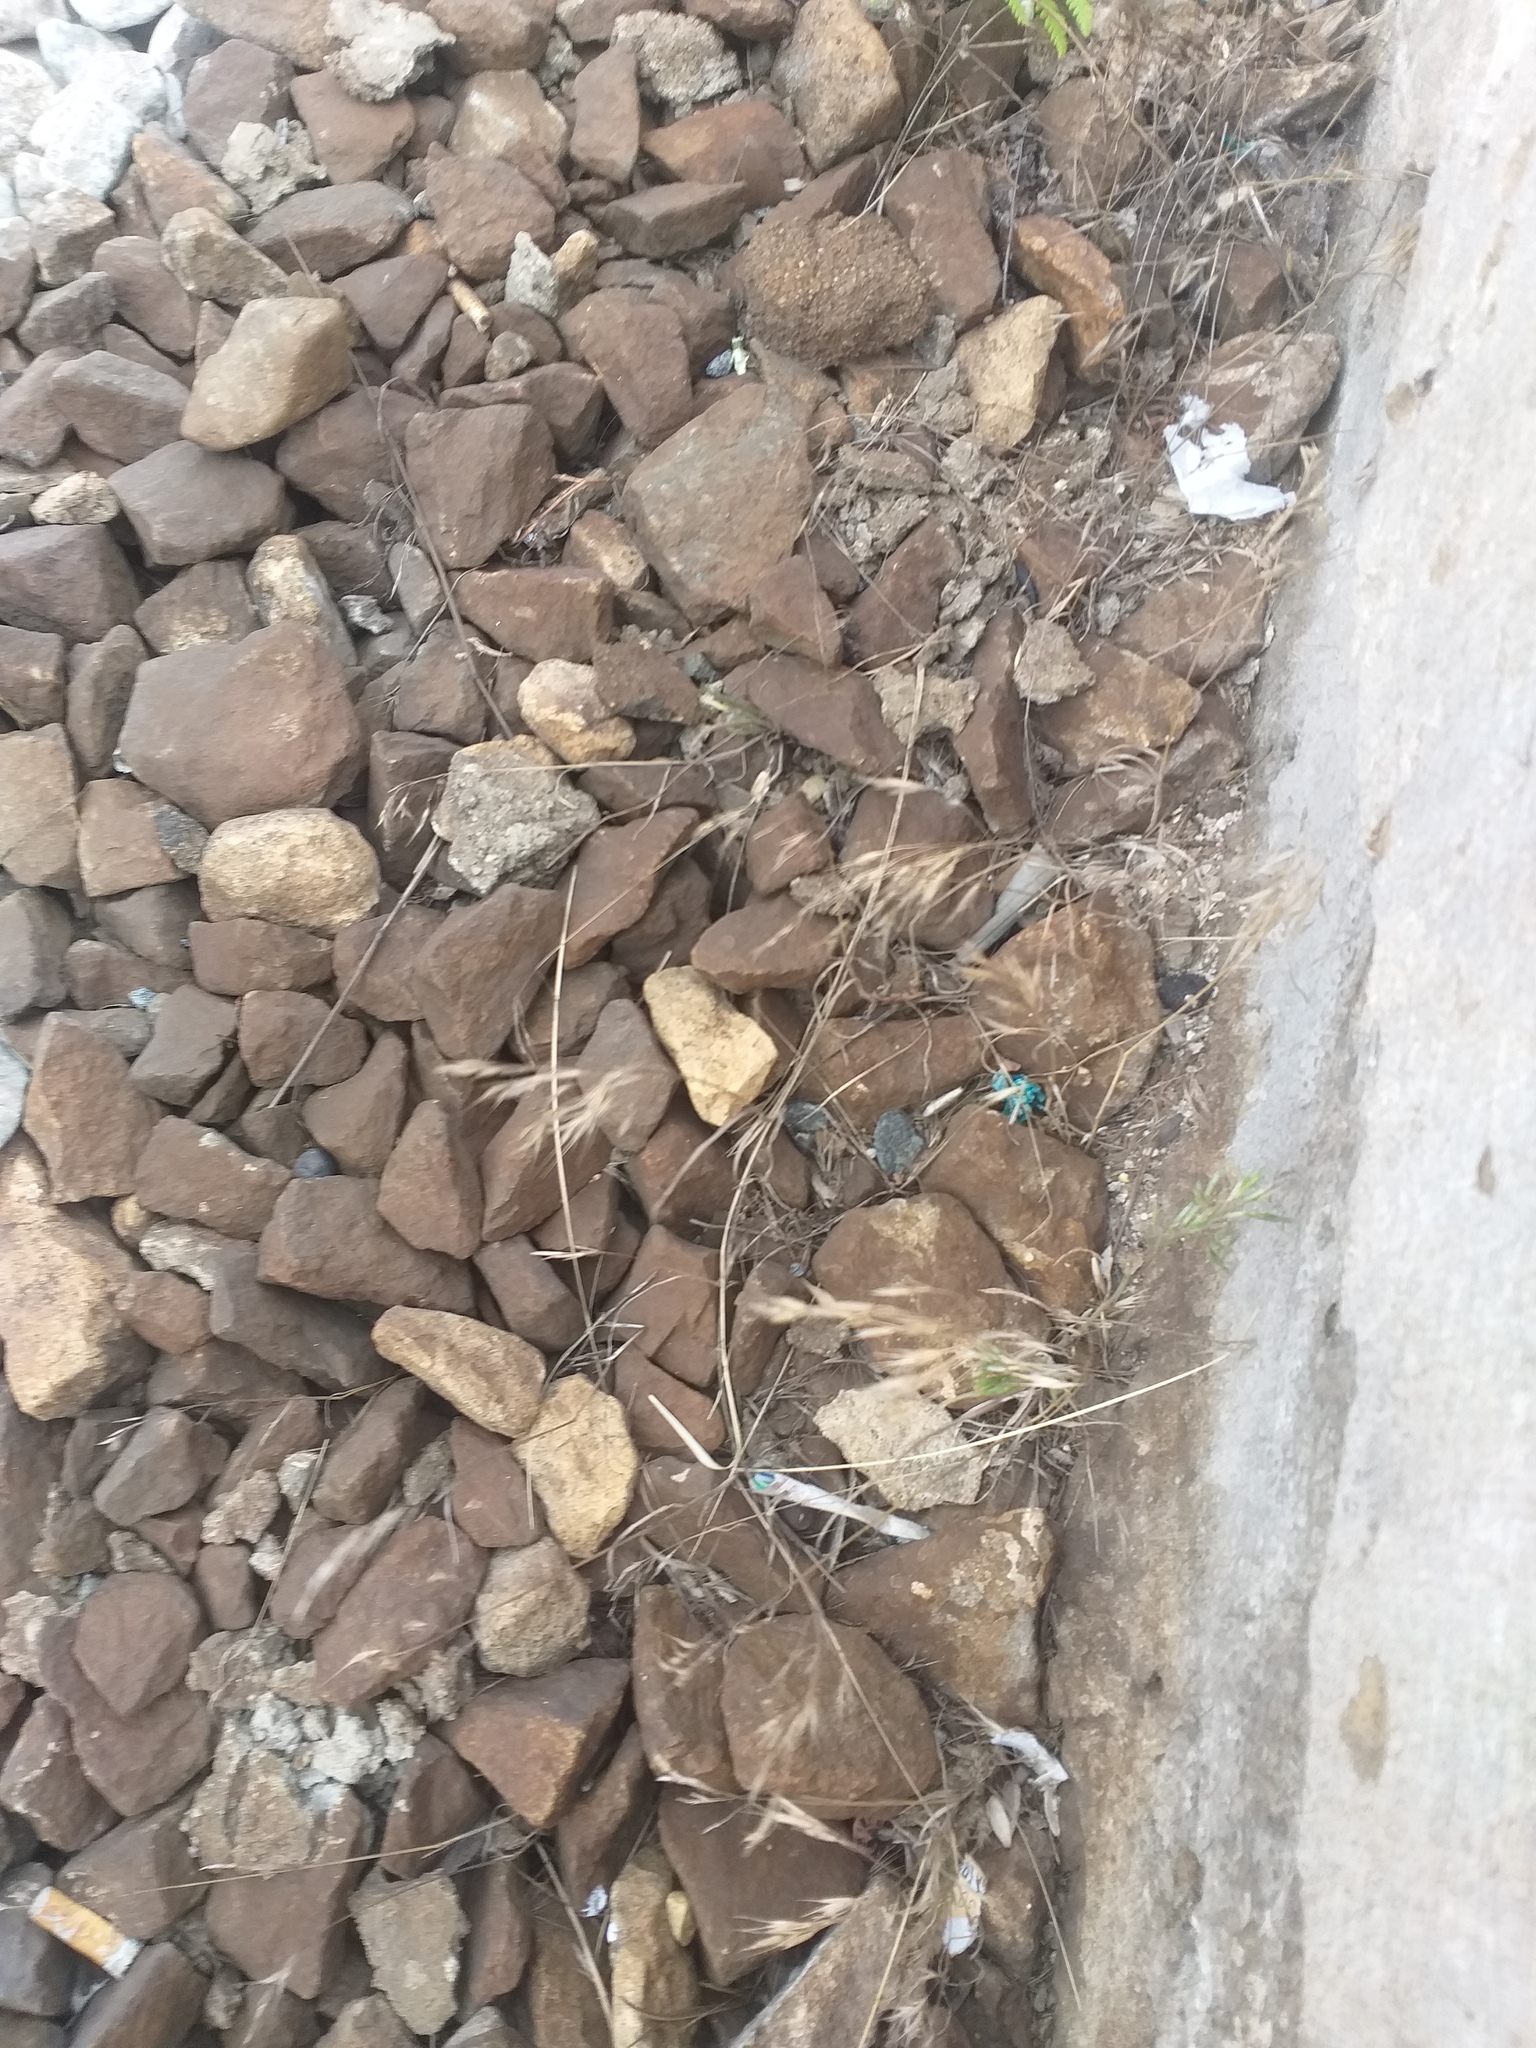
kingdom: Plantae
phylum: Tracheophyta
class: Liliopsida
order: Poales
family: Poaceae
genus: Bromus
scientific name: Bromus tectorum
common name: Cheatgrass
